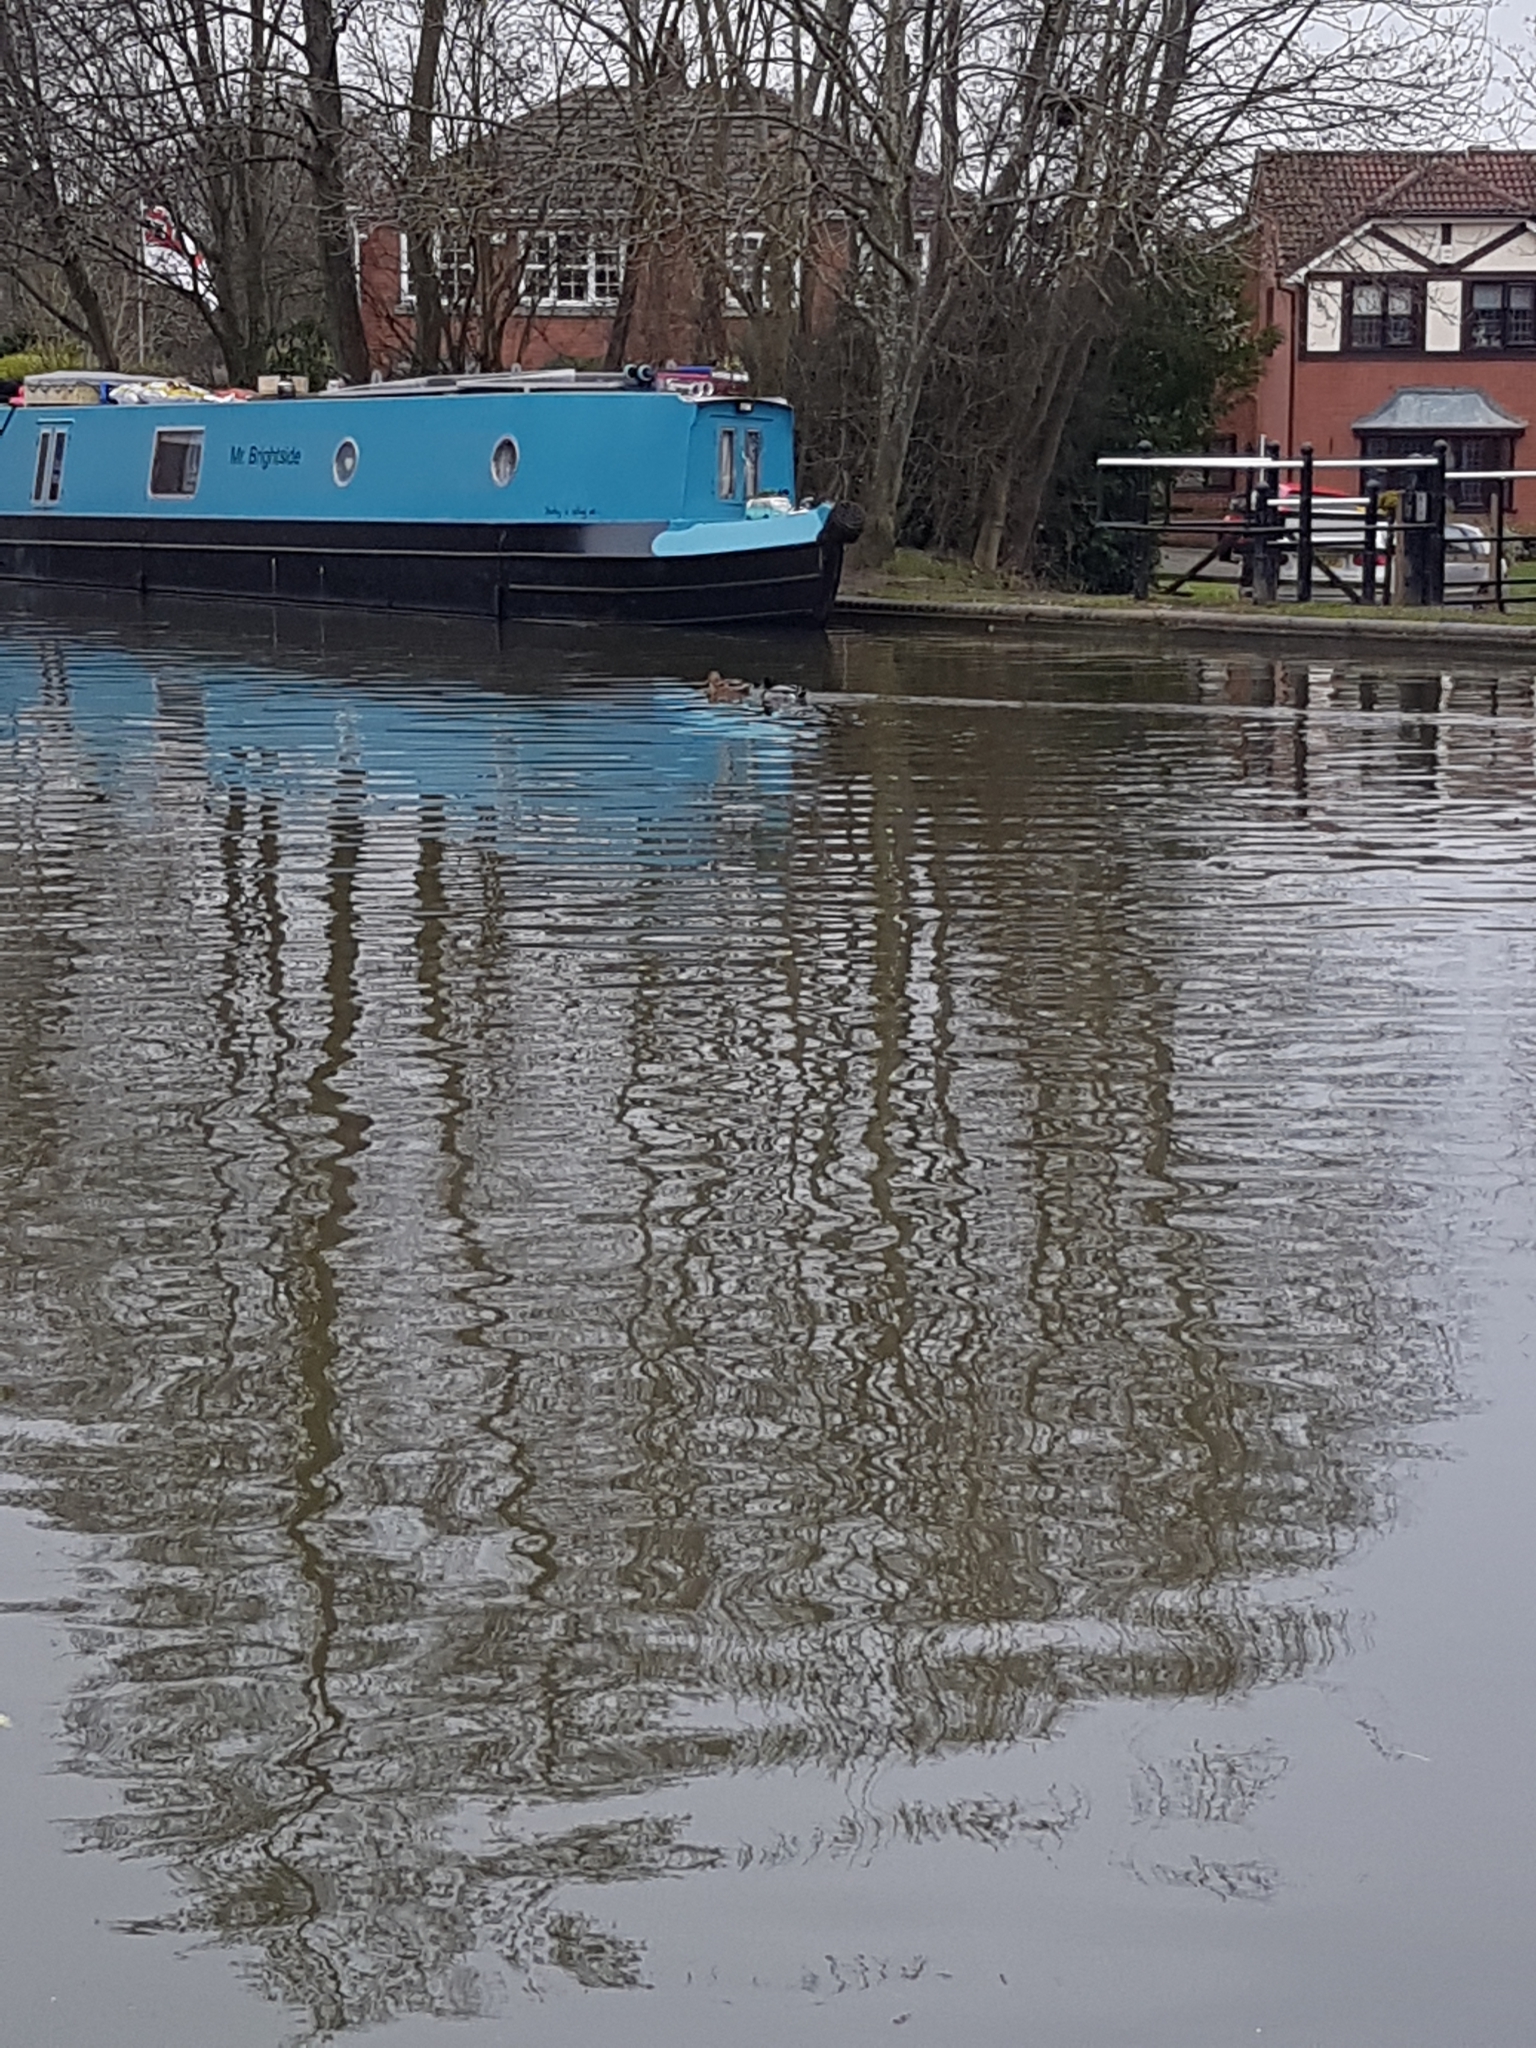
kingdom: Animalia
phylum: Chordata
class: Aves
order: Anseriformes
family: Anatidae
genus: Anas
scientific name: Anas platyrhynchos
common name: Mallard
